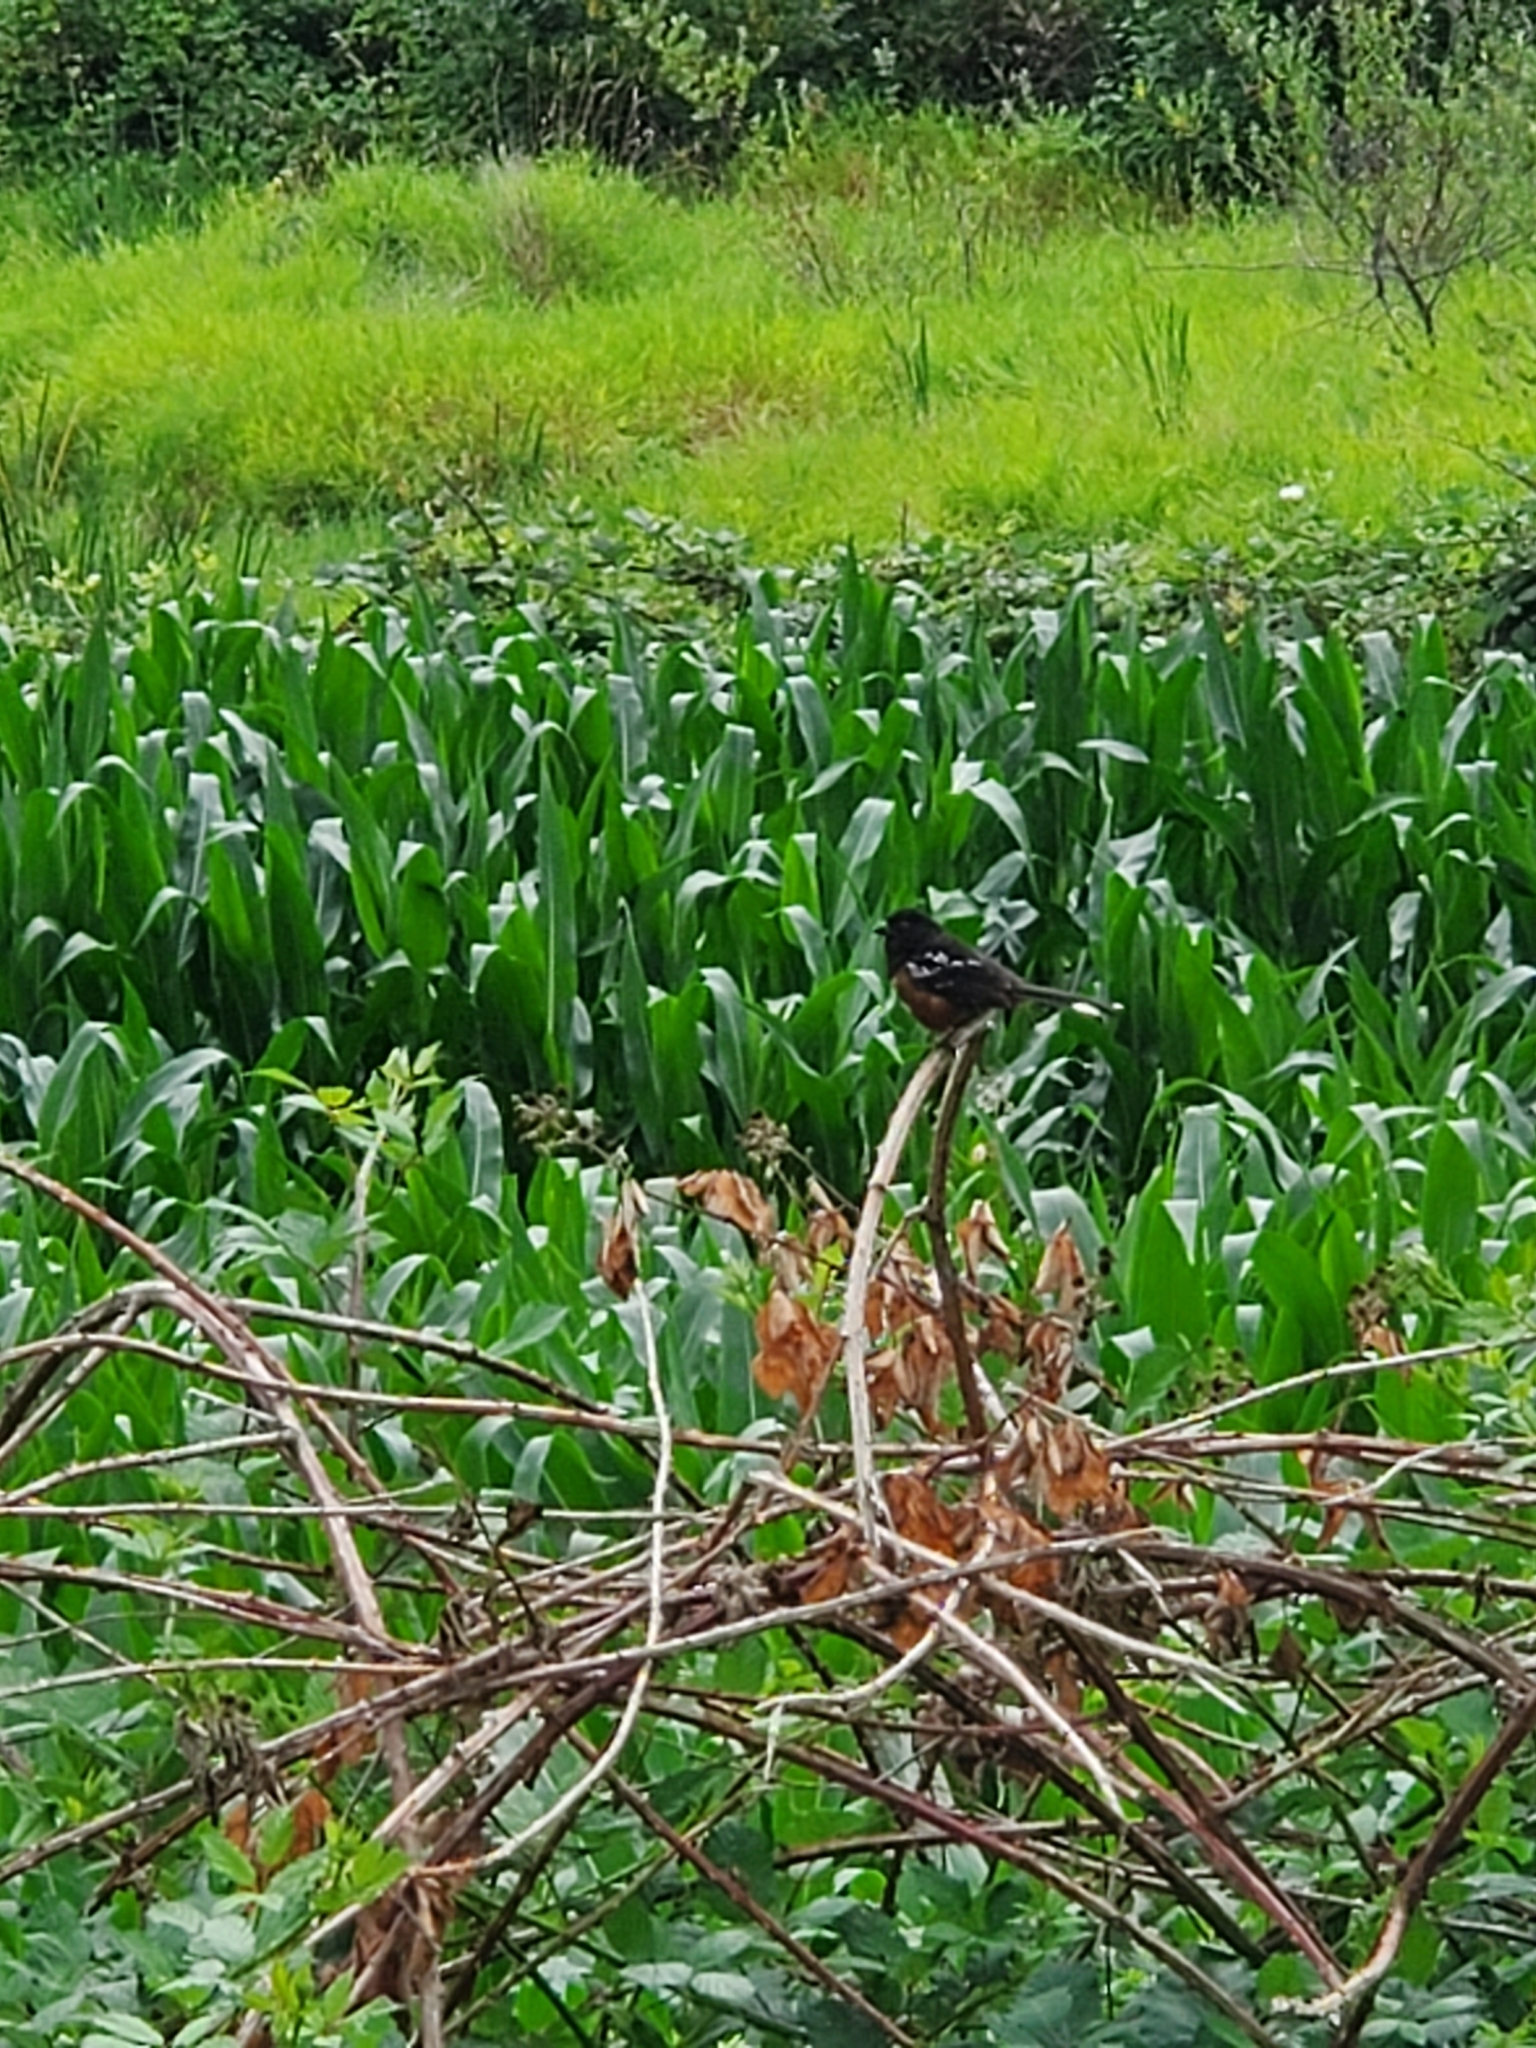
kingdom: Animalia
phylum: Chordata
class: Aves
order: Passeriformes
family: Passerellidae
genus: Pipilo
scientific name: Pipilo maculatus
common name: Spotted towhee
